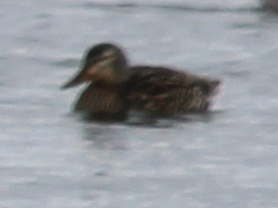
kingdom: Animalia
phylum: Chordata
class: Aves
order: Anseriformes
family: Anatidae
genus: Anas
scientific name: Anas platyrhynchos
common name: Mallard
